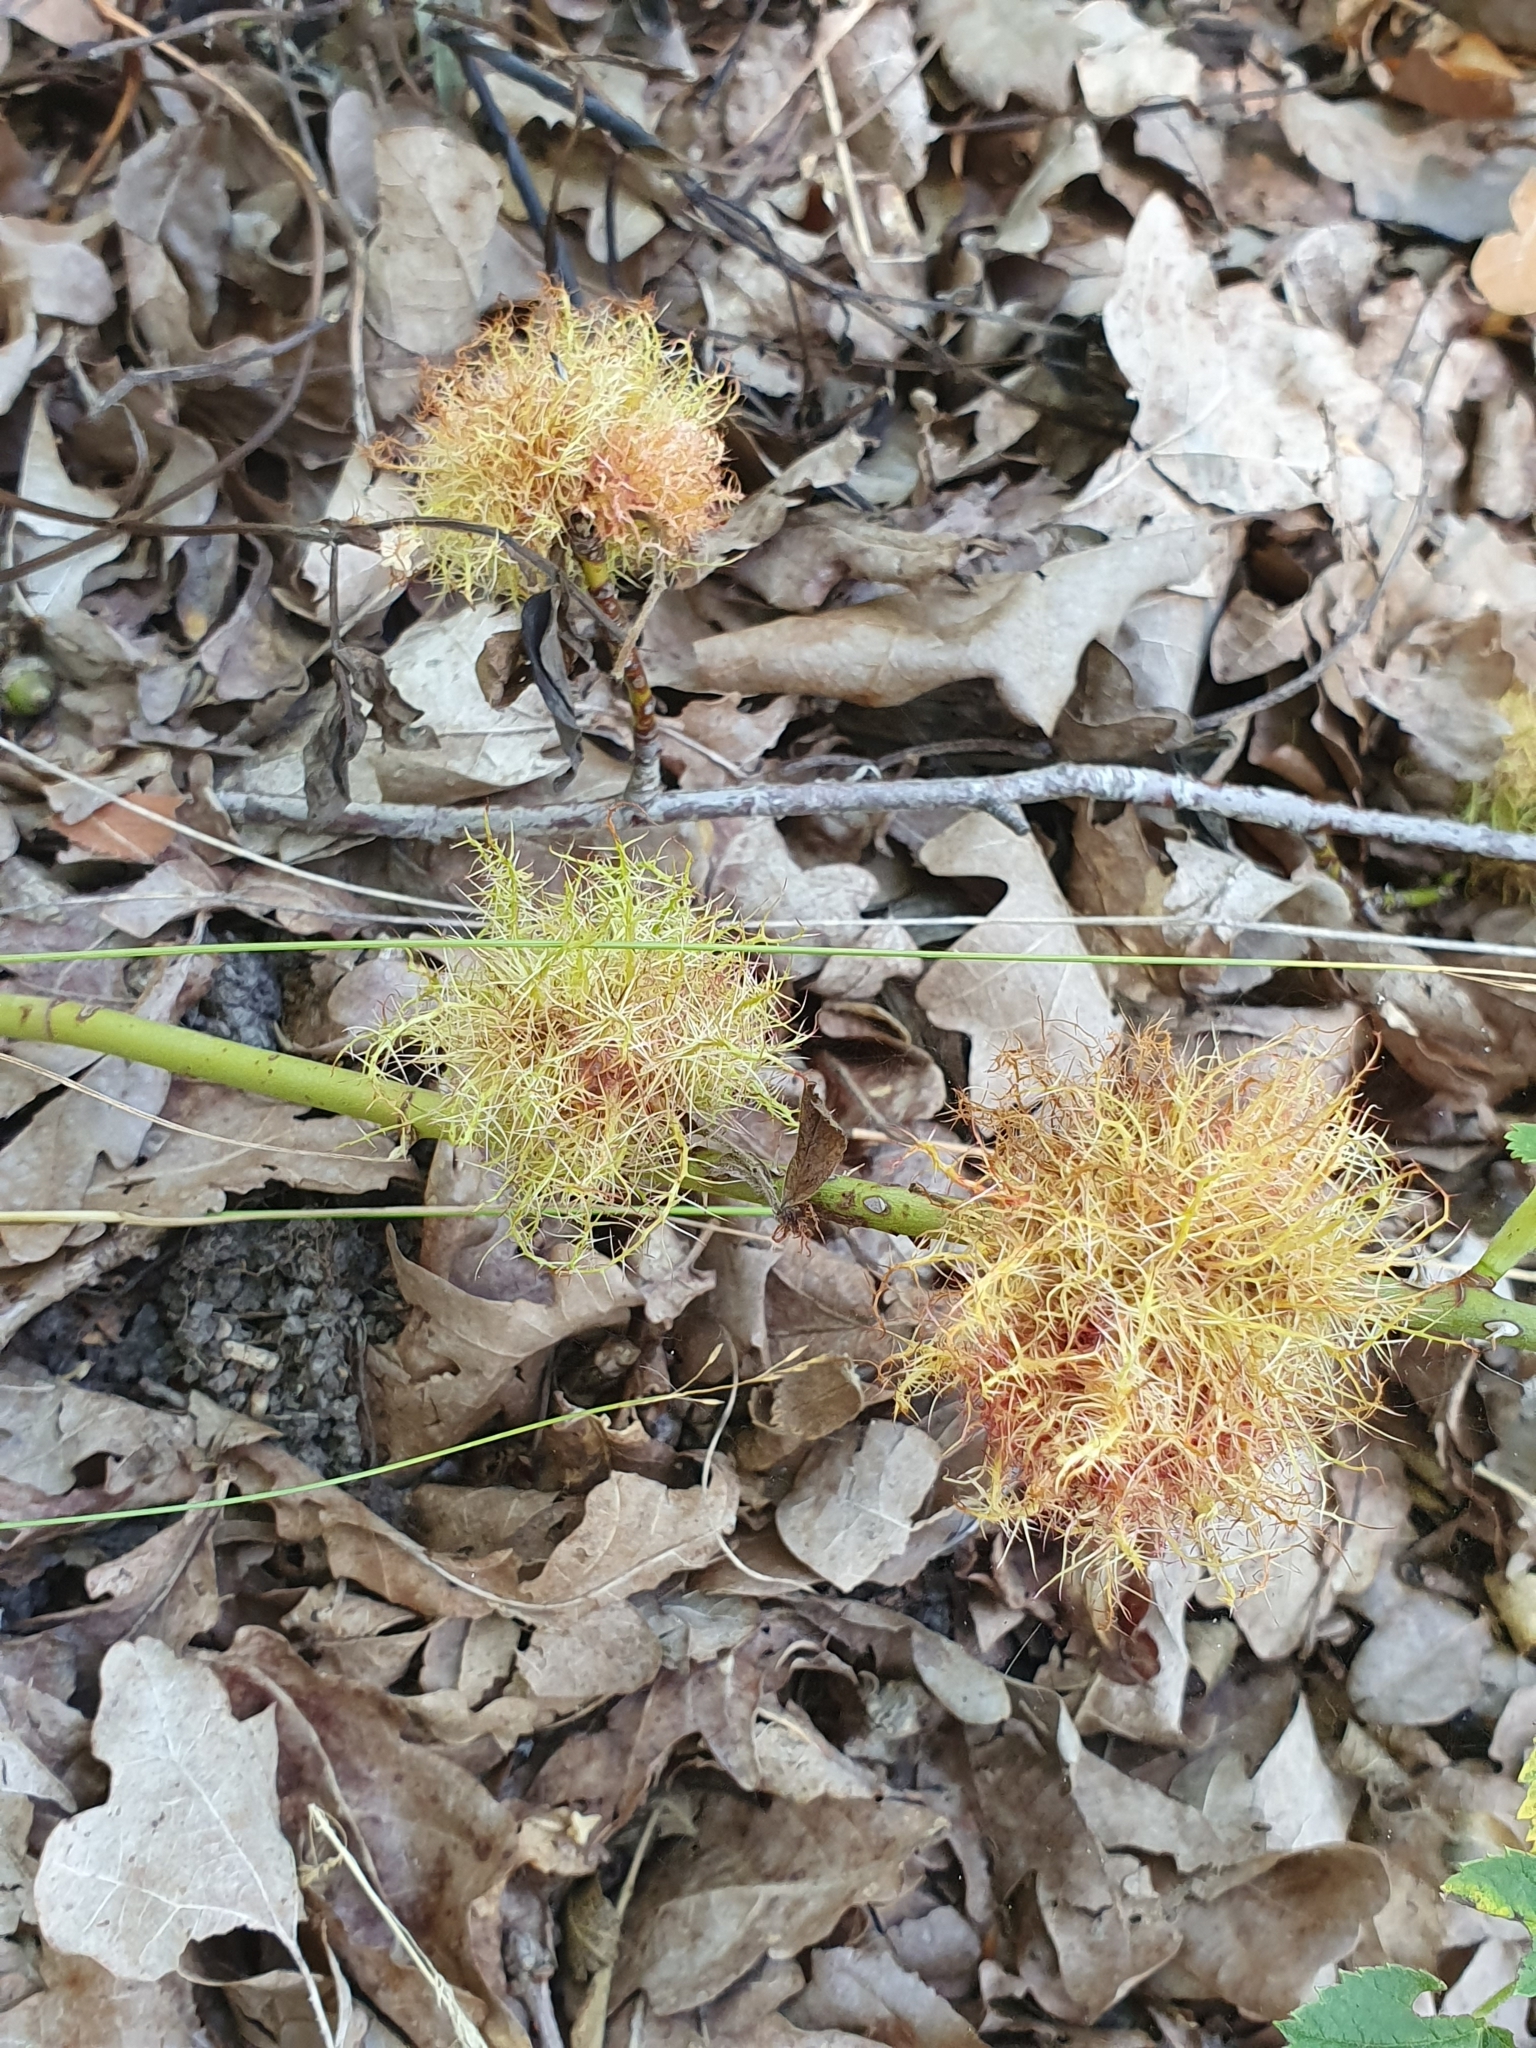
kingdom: Animalia
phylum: Arthropoda
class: Insecta
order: Hymenoptera
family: Cynipidae
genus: Diplolepis
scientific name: Diplolepis rosae
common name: Bedeguar gall
